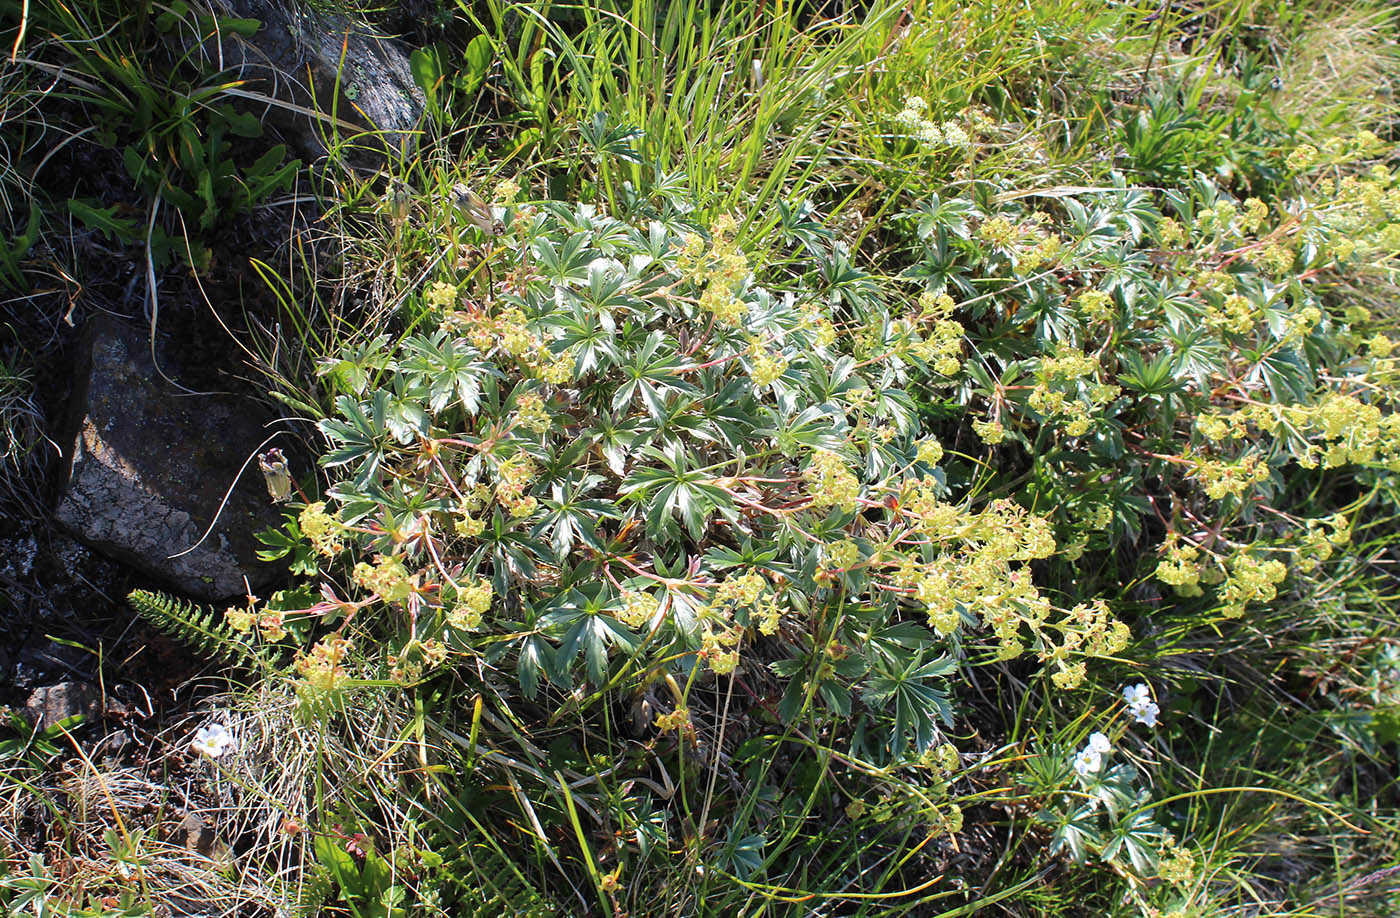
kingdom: Plantae
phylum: Tracheophyta
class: Magnoliopsida
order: Rosales
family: Rosaceae
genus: Alchemilla
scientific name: Alchemilla sericea
